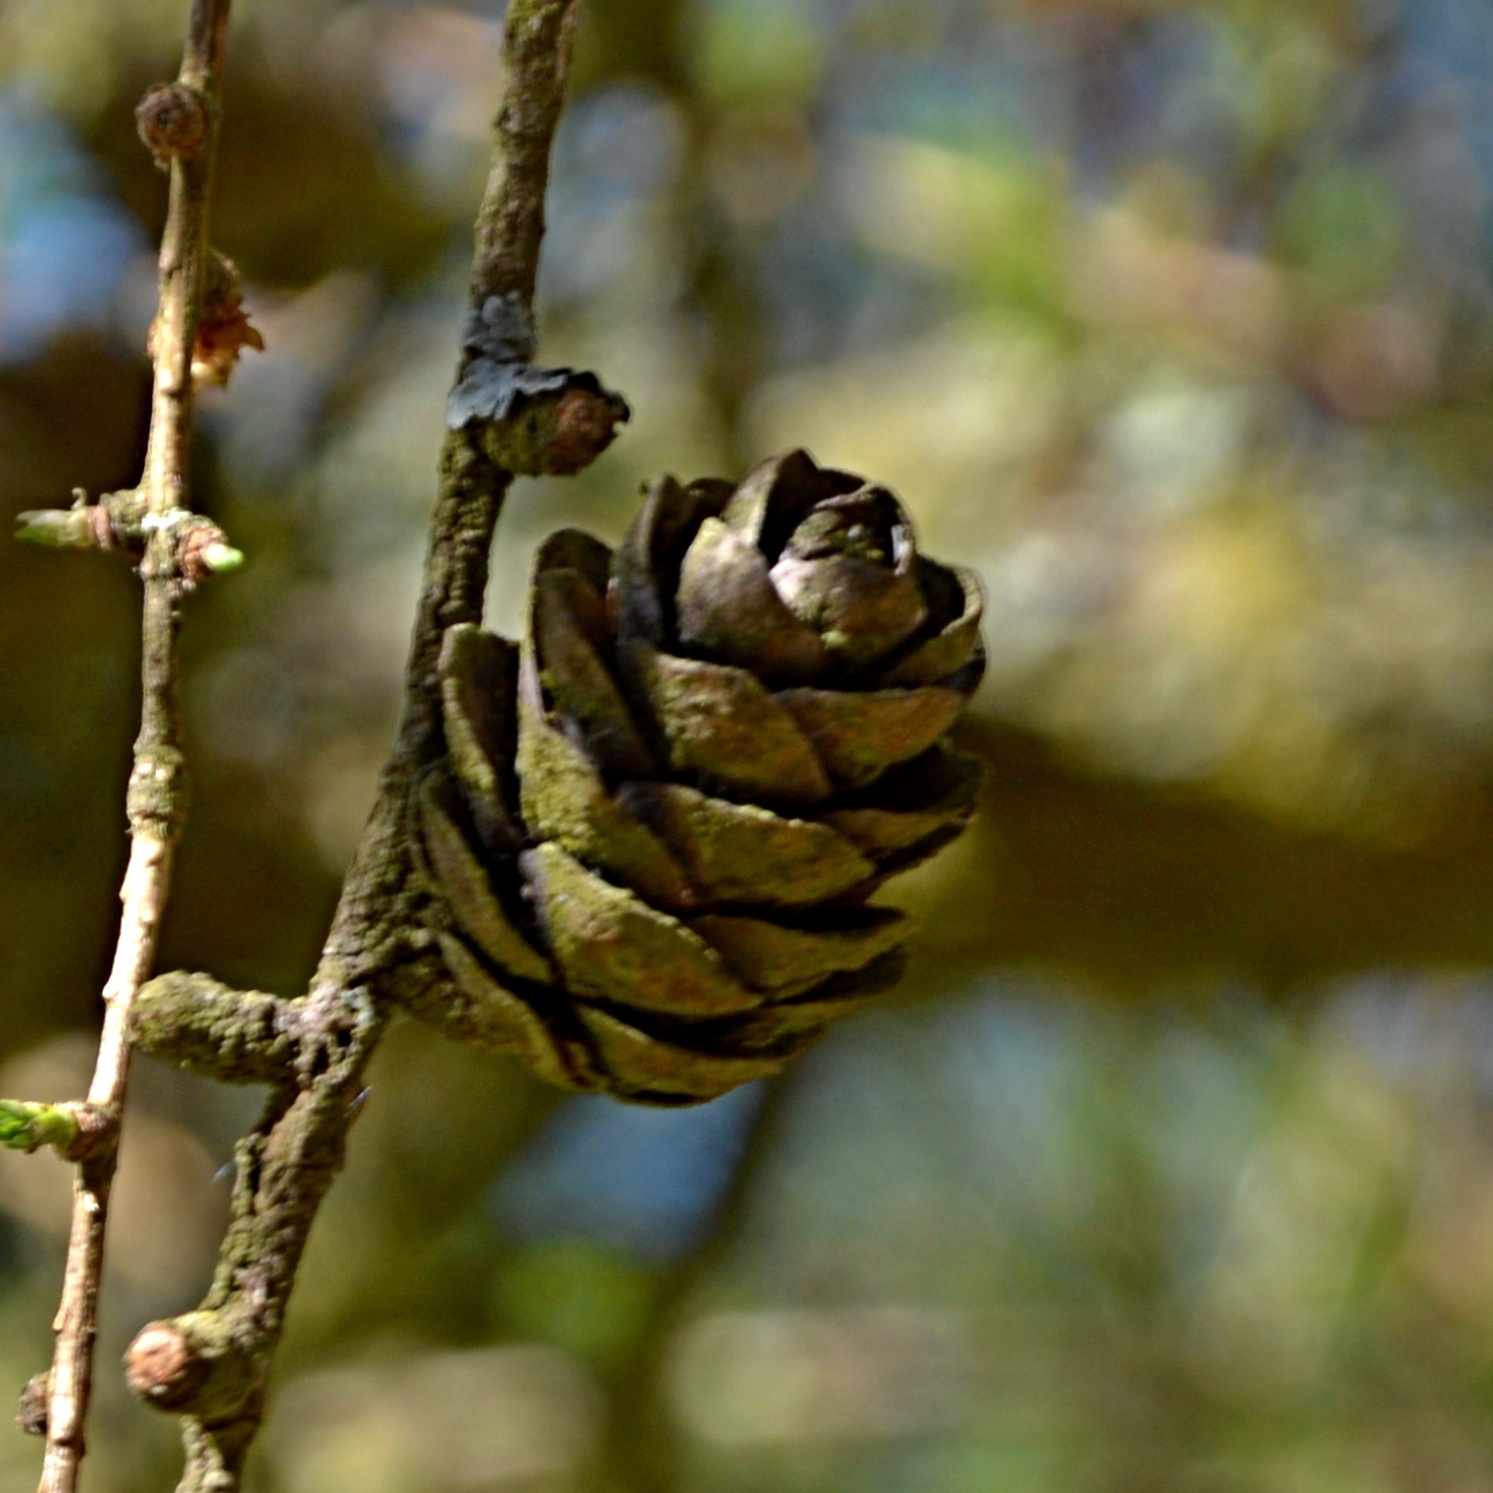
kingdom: Plantae
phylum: Tracheophyta
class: Pinopsida
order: Pinales
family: Pinaceae
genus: Larix
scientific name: Larix decidua
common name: European larch
